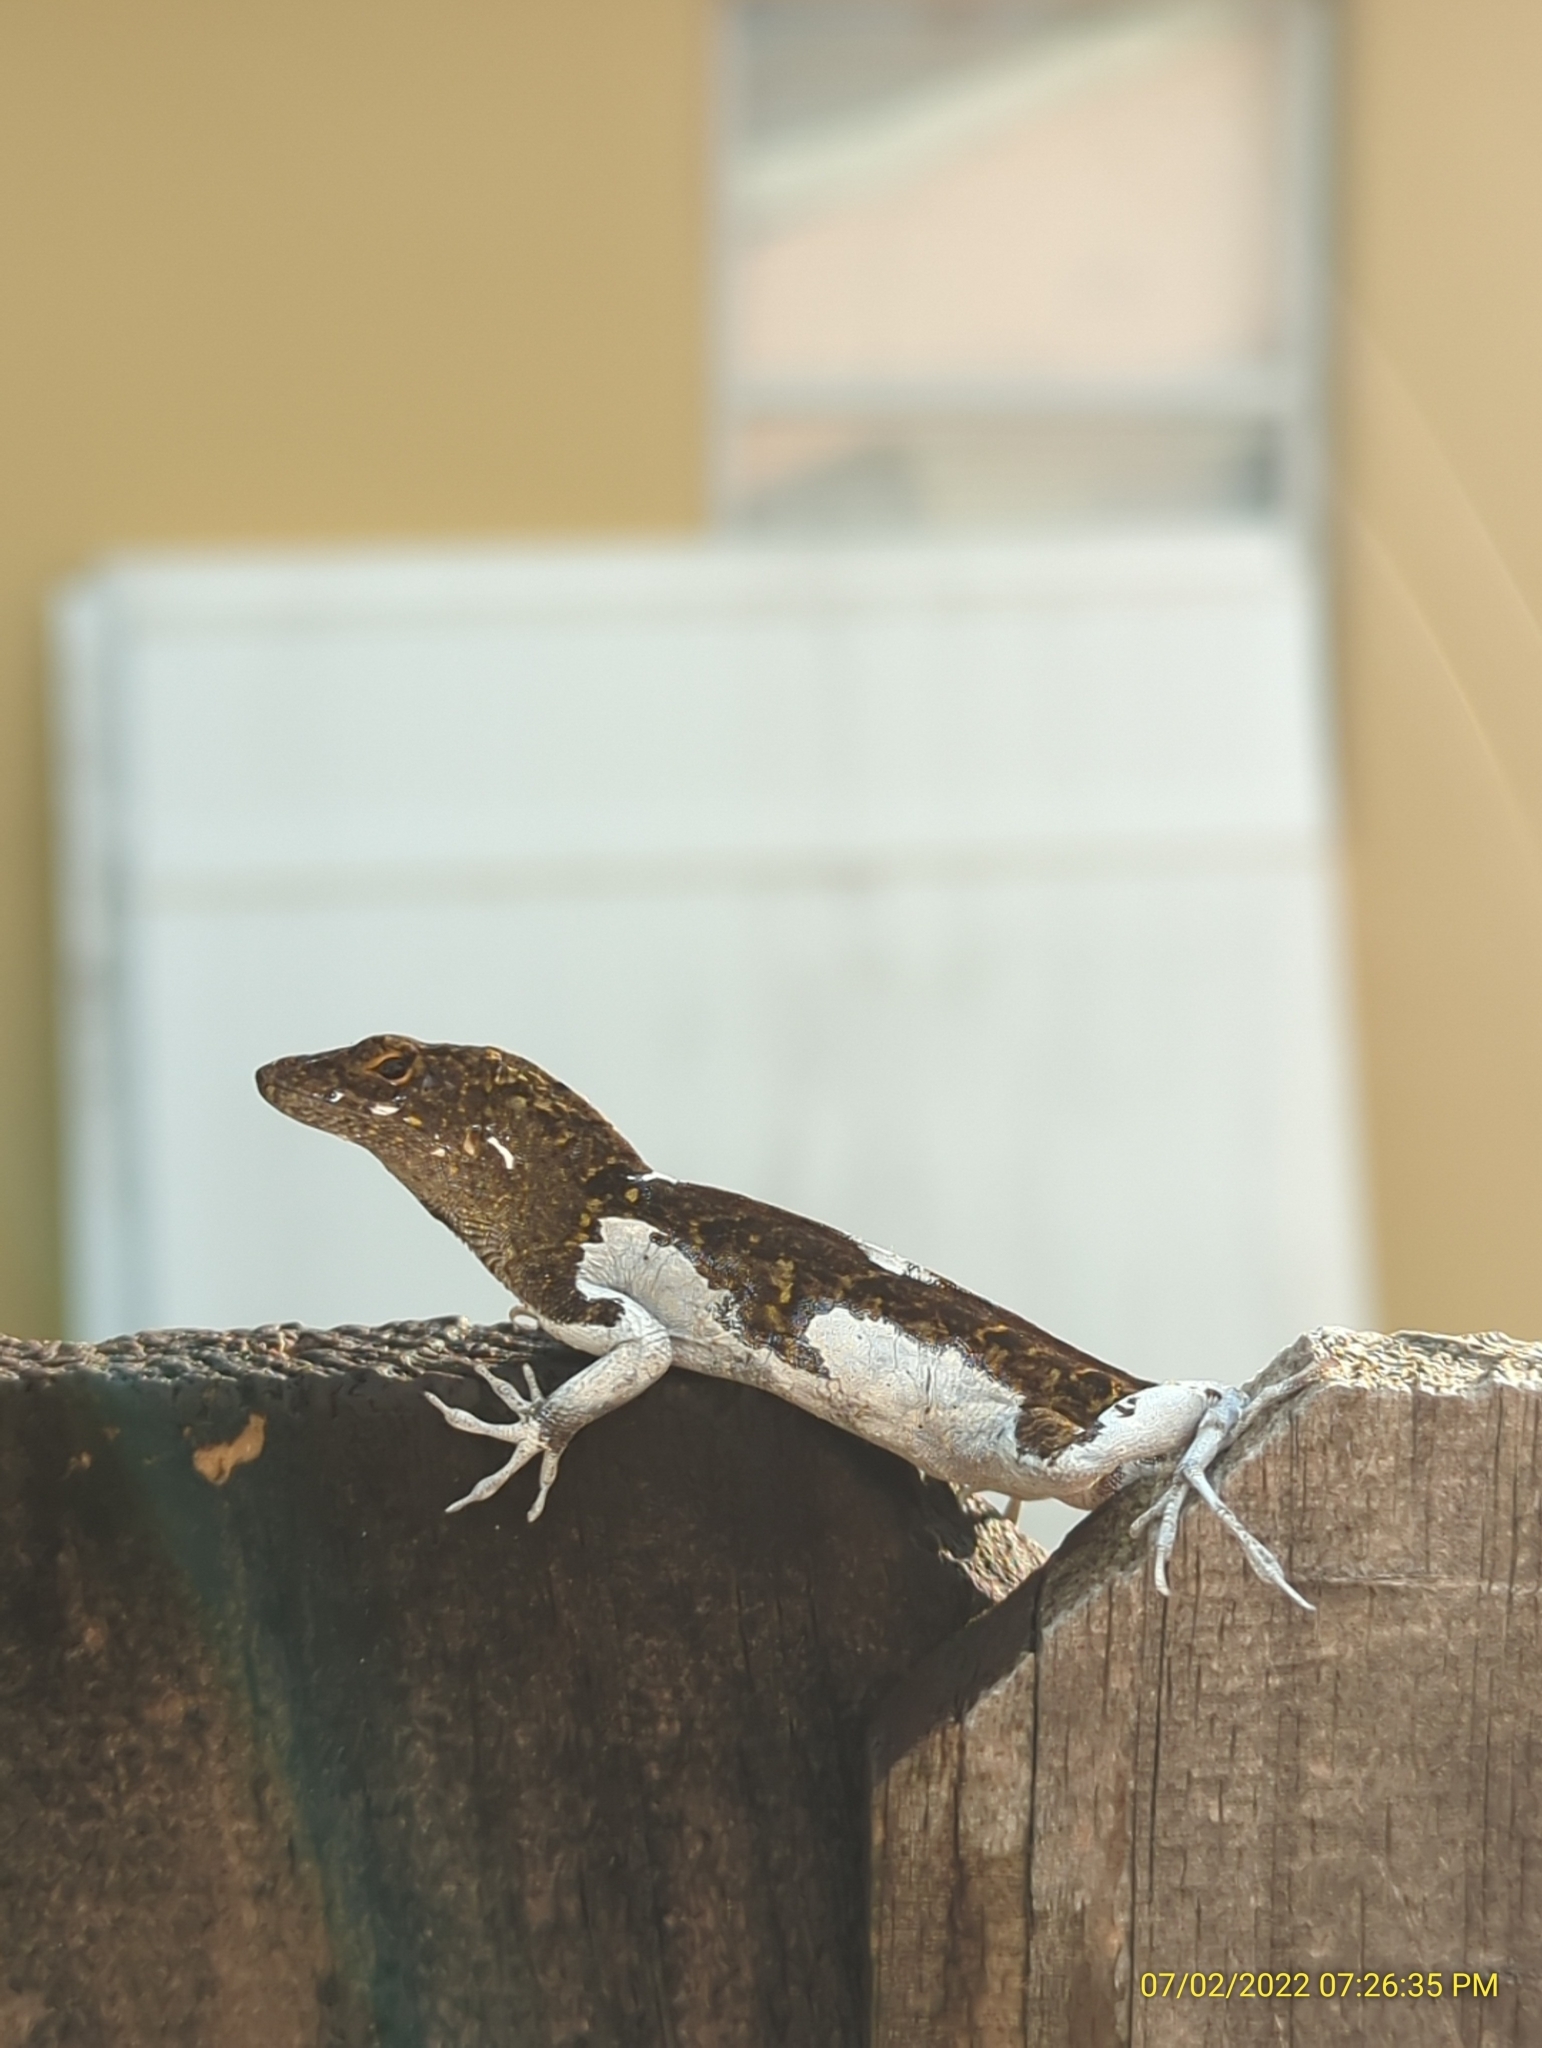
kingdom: Animalia
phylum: Chordata
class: Squamata
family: Dactyloidae
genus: Anolis
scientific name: Anolis sagrei
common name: Brown anole
